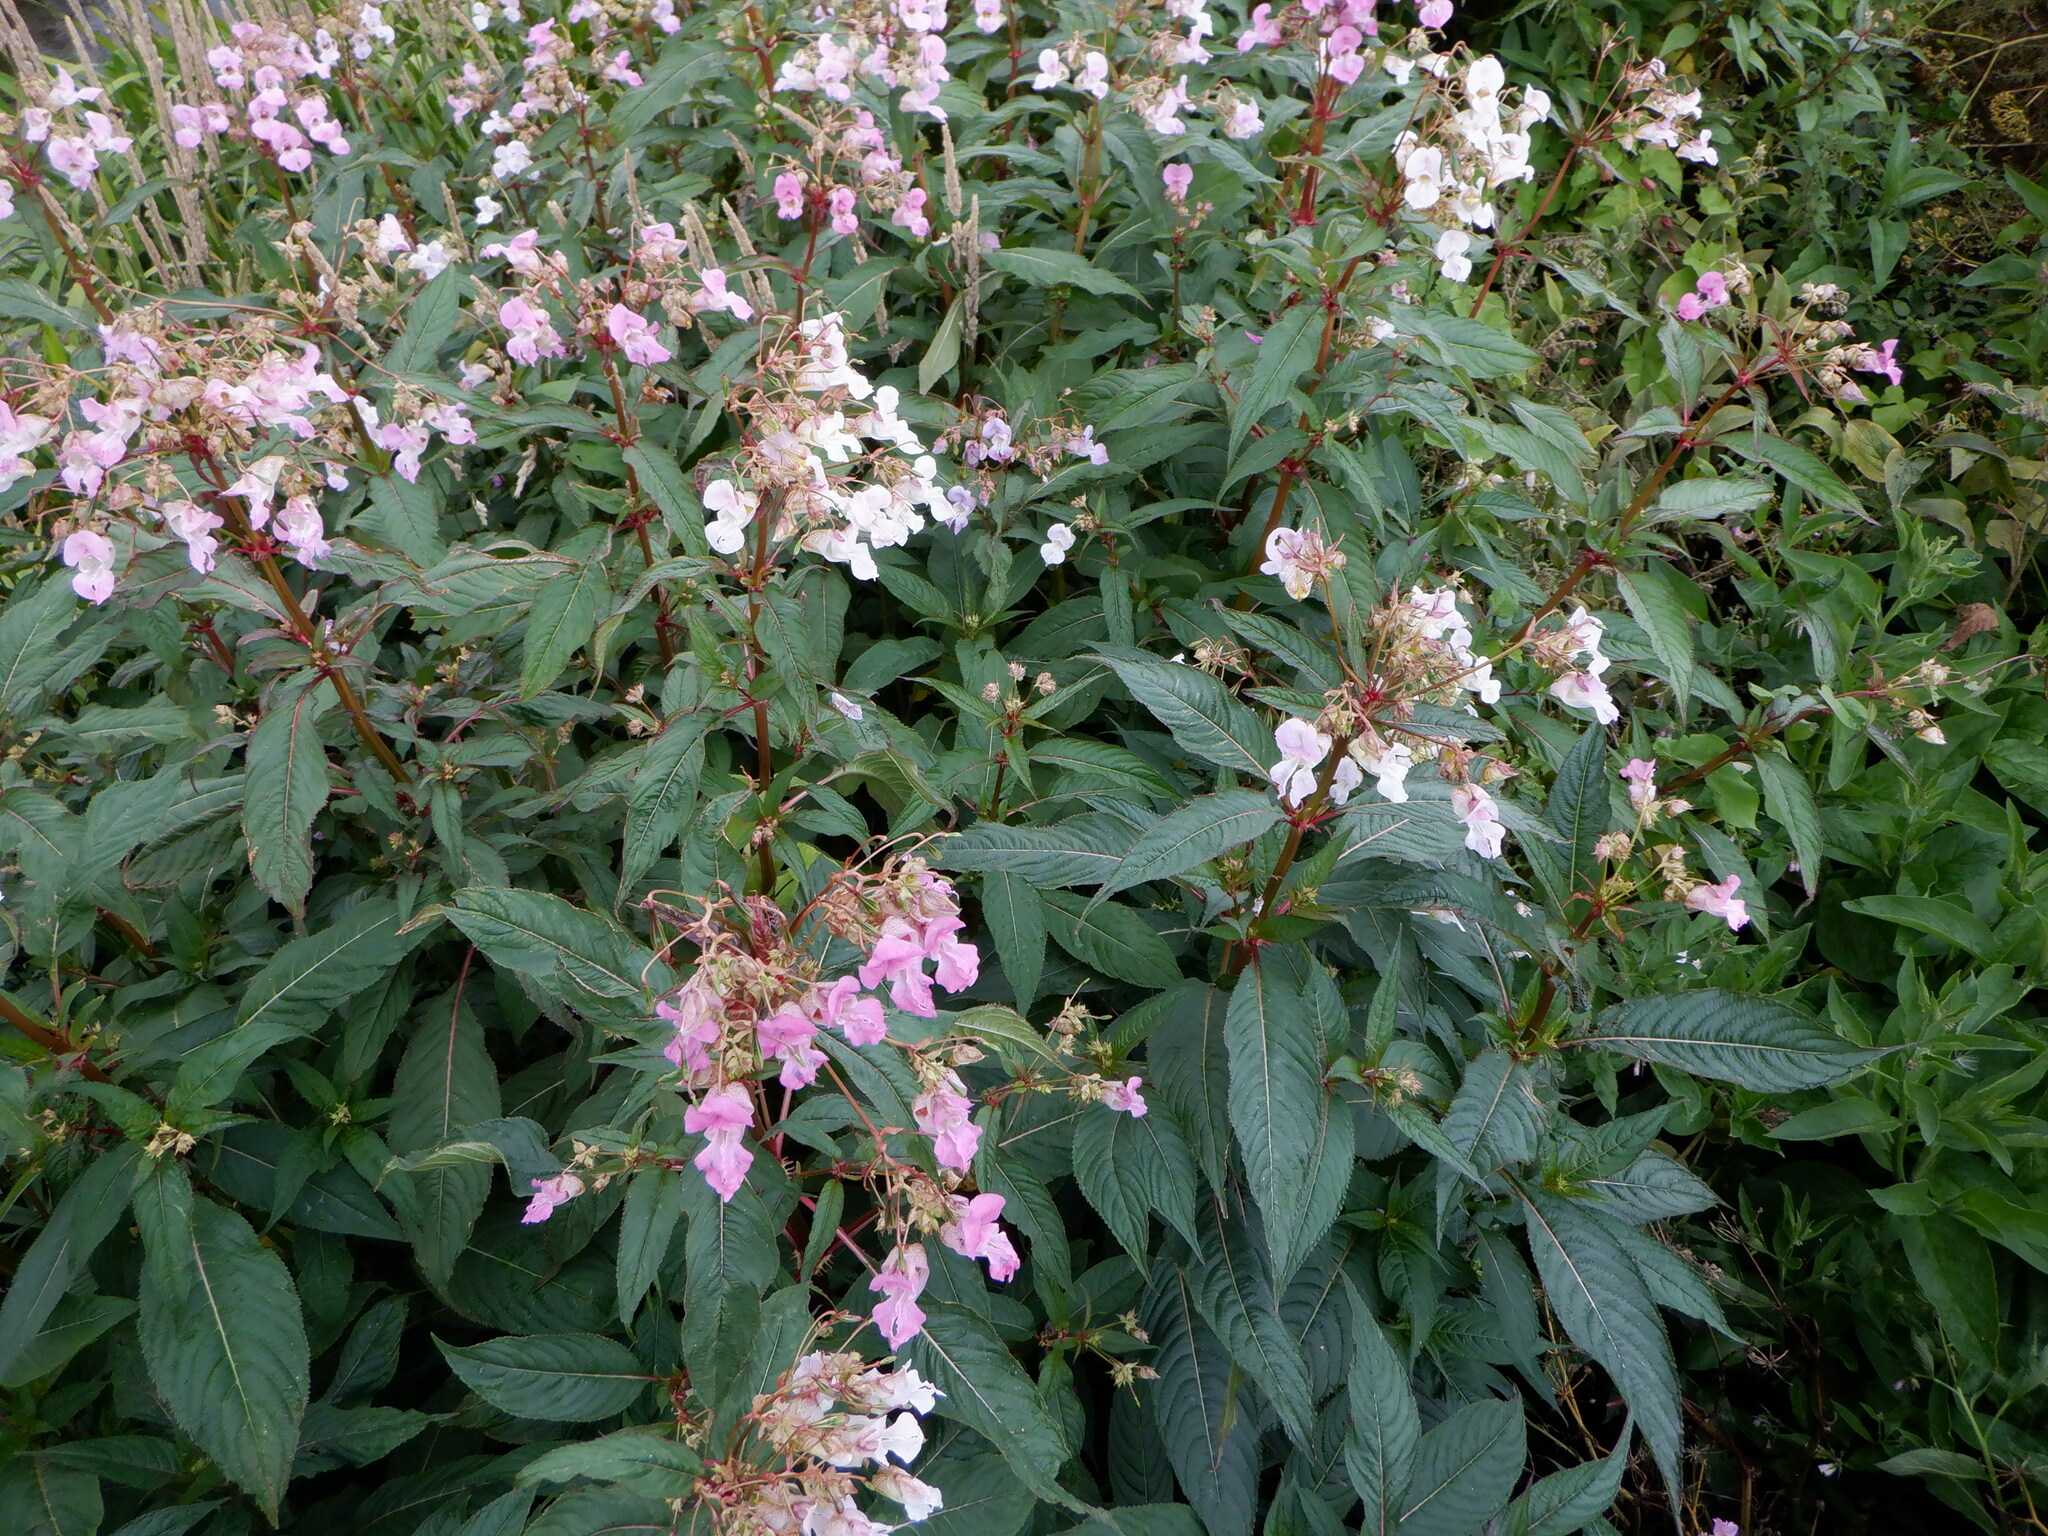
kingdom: Plantae
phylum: Tracheophyta
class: Magnoliopsida
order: Ericales
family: Balsaminaceae
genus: Impatiens
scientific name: Impatiens glandulifera
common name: Himalayan balsam
